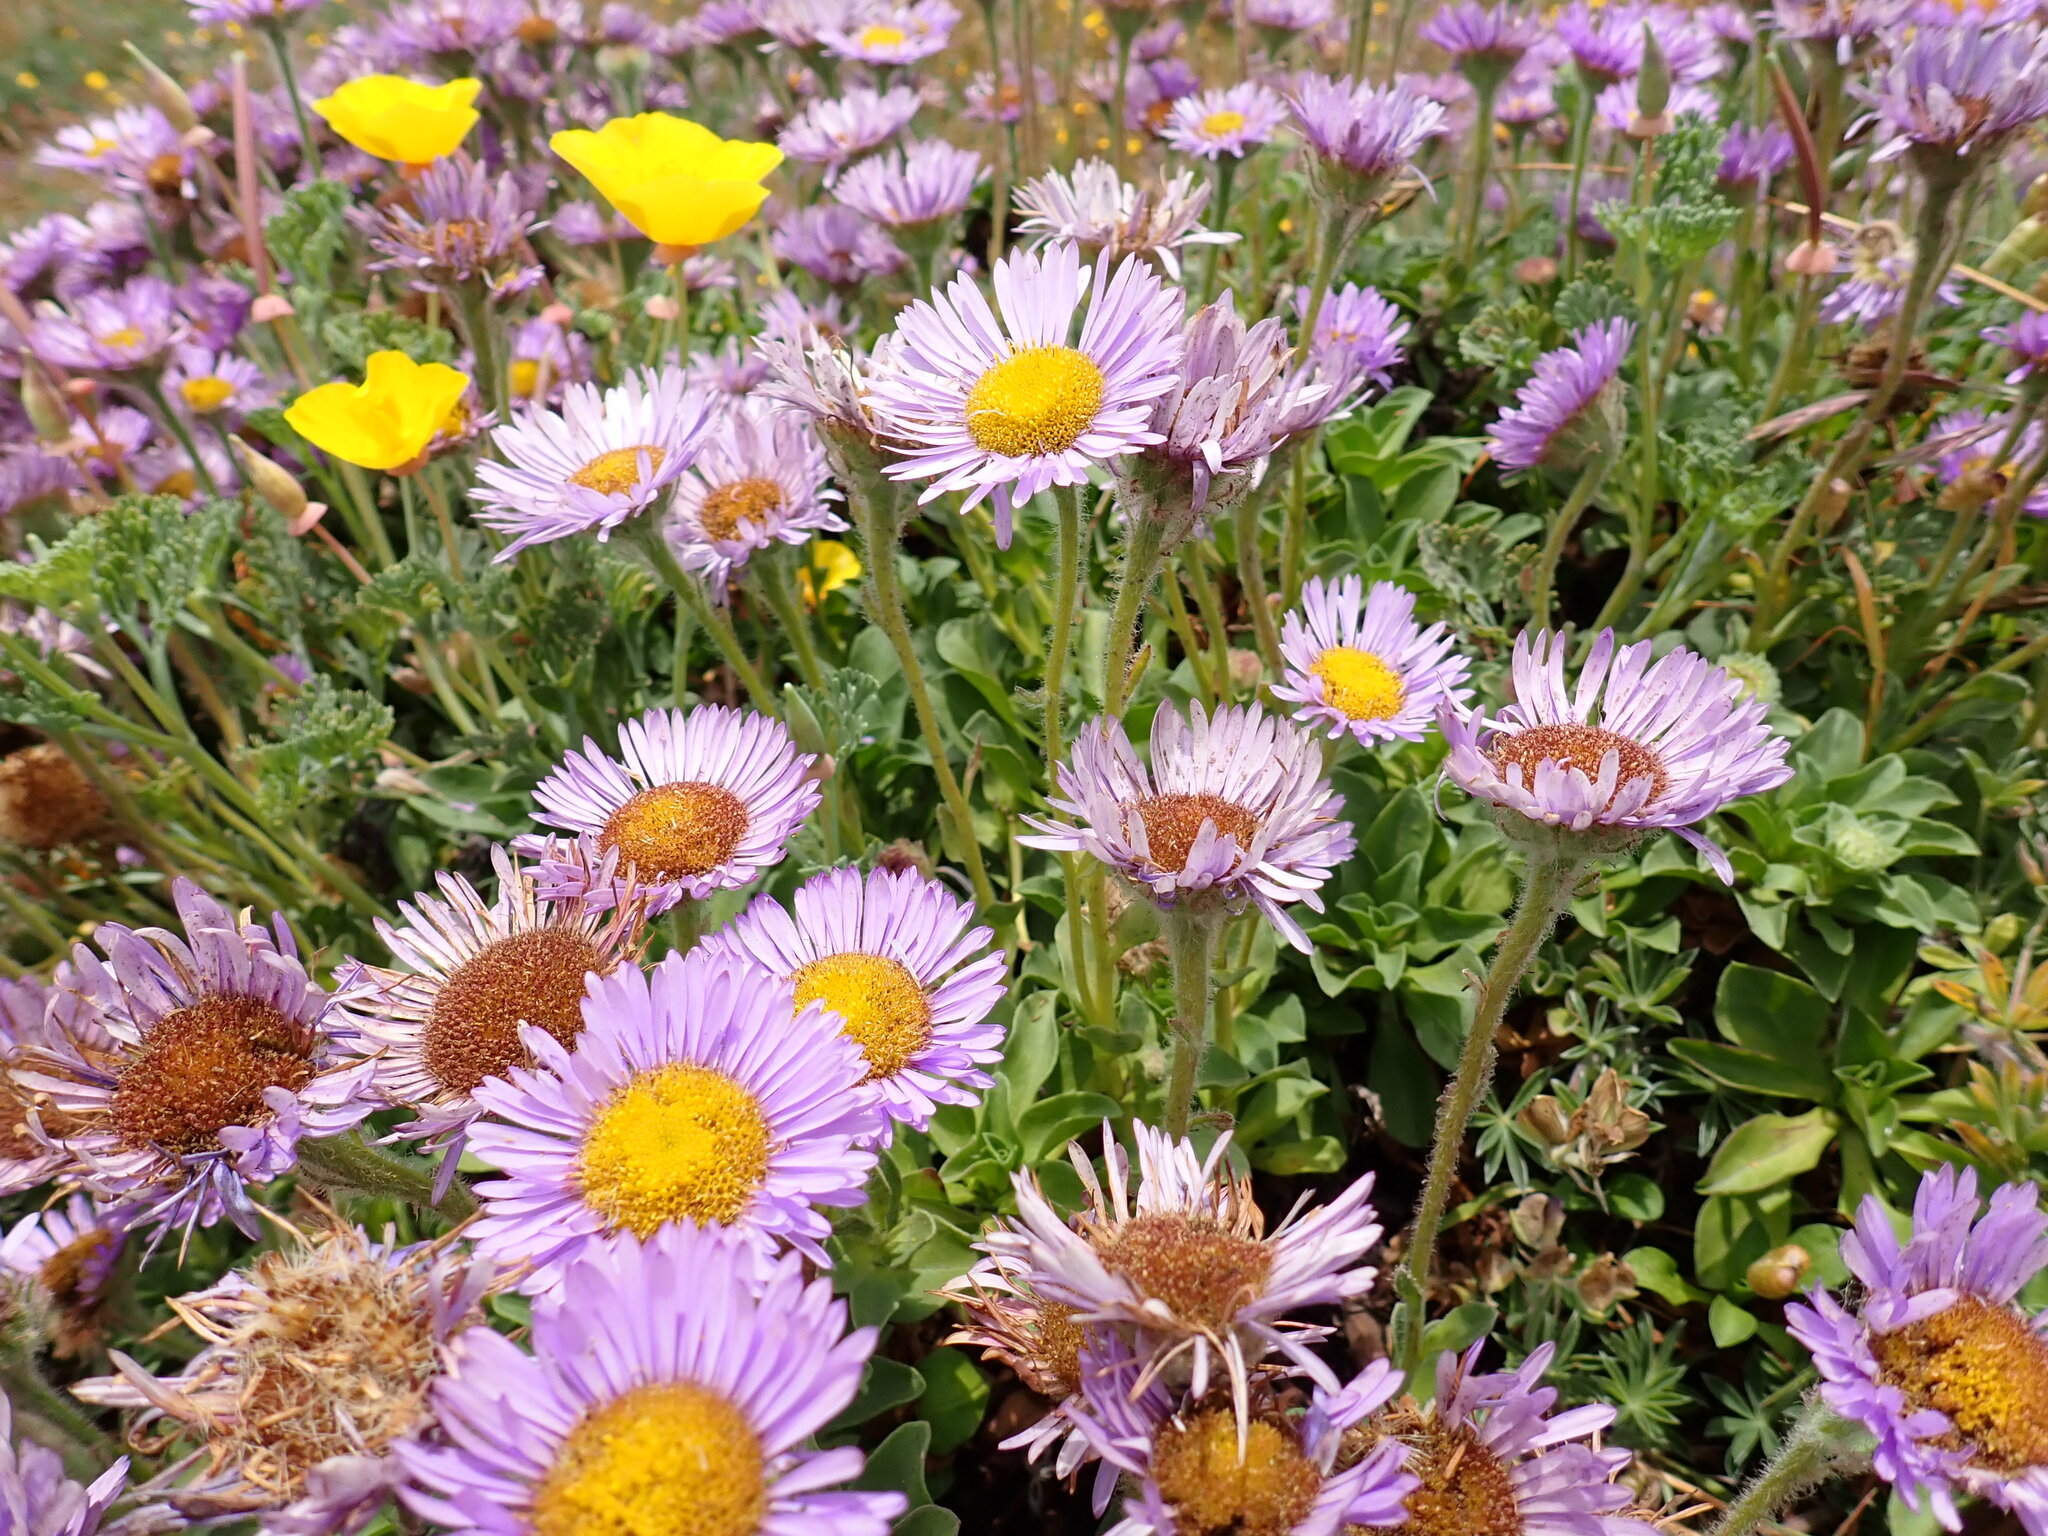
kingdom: Plantae
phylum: Tracheophyta
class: Magnoliopsida
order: Asterales
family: Asteraceae
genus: Erigeron
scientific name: Erigeron glaucus
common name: Seaside daisy
